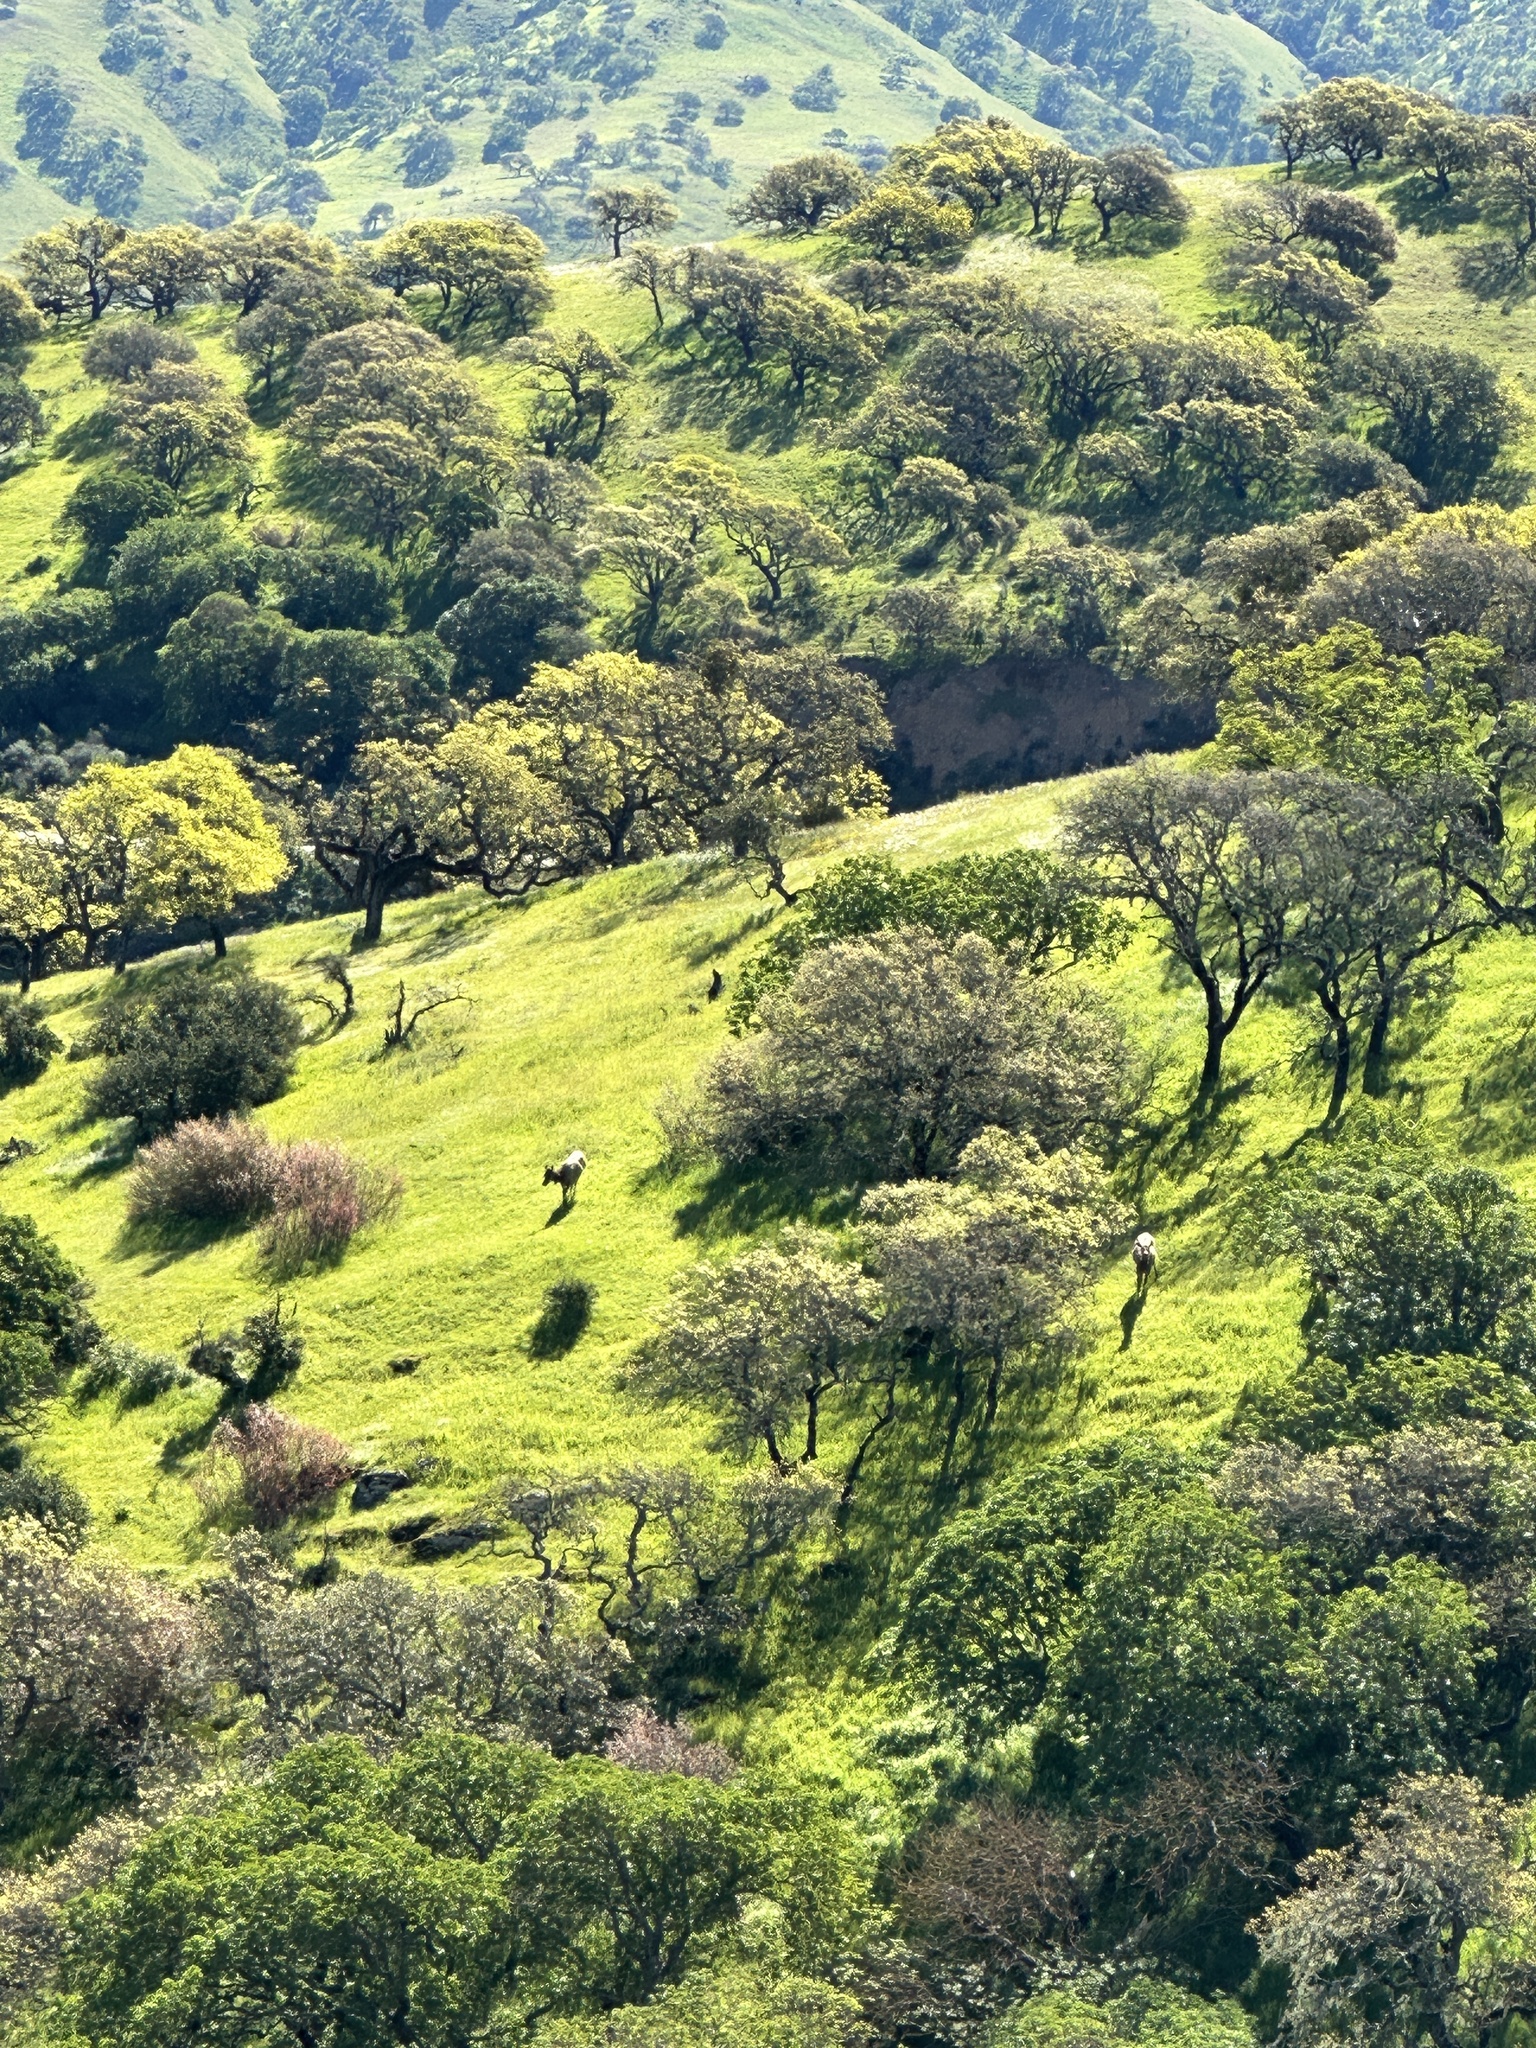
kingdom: Animalia
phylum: Chordata
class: Mammalia
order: Artiodactyla
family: Cervidae
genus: Cervus
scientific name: Cervus elaphus
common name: Red deer
